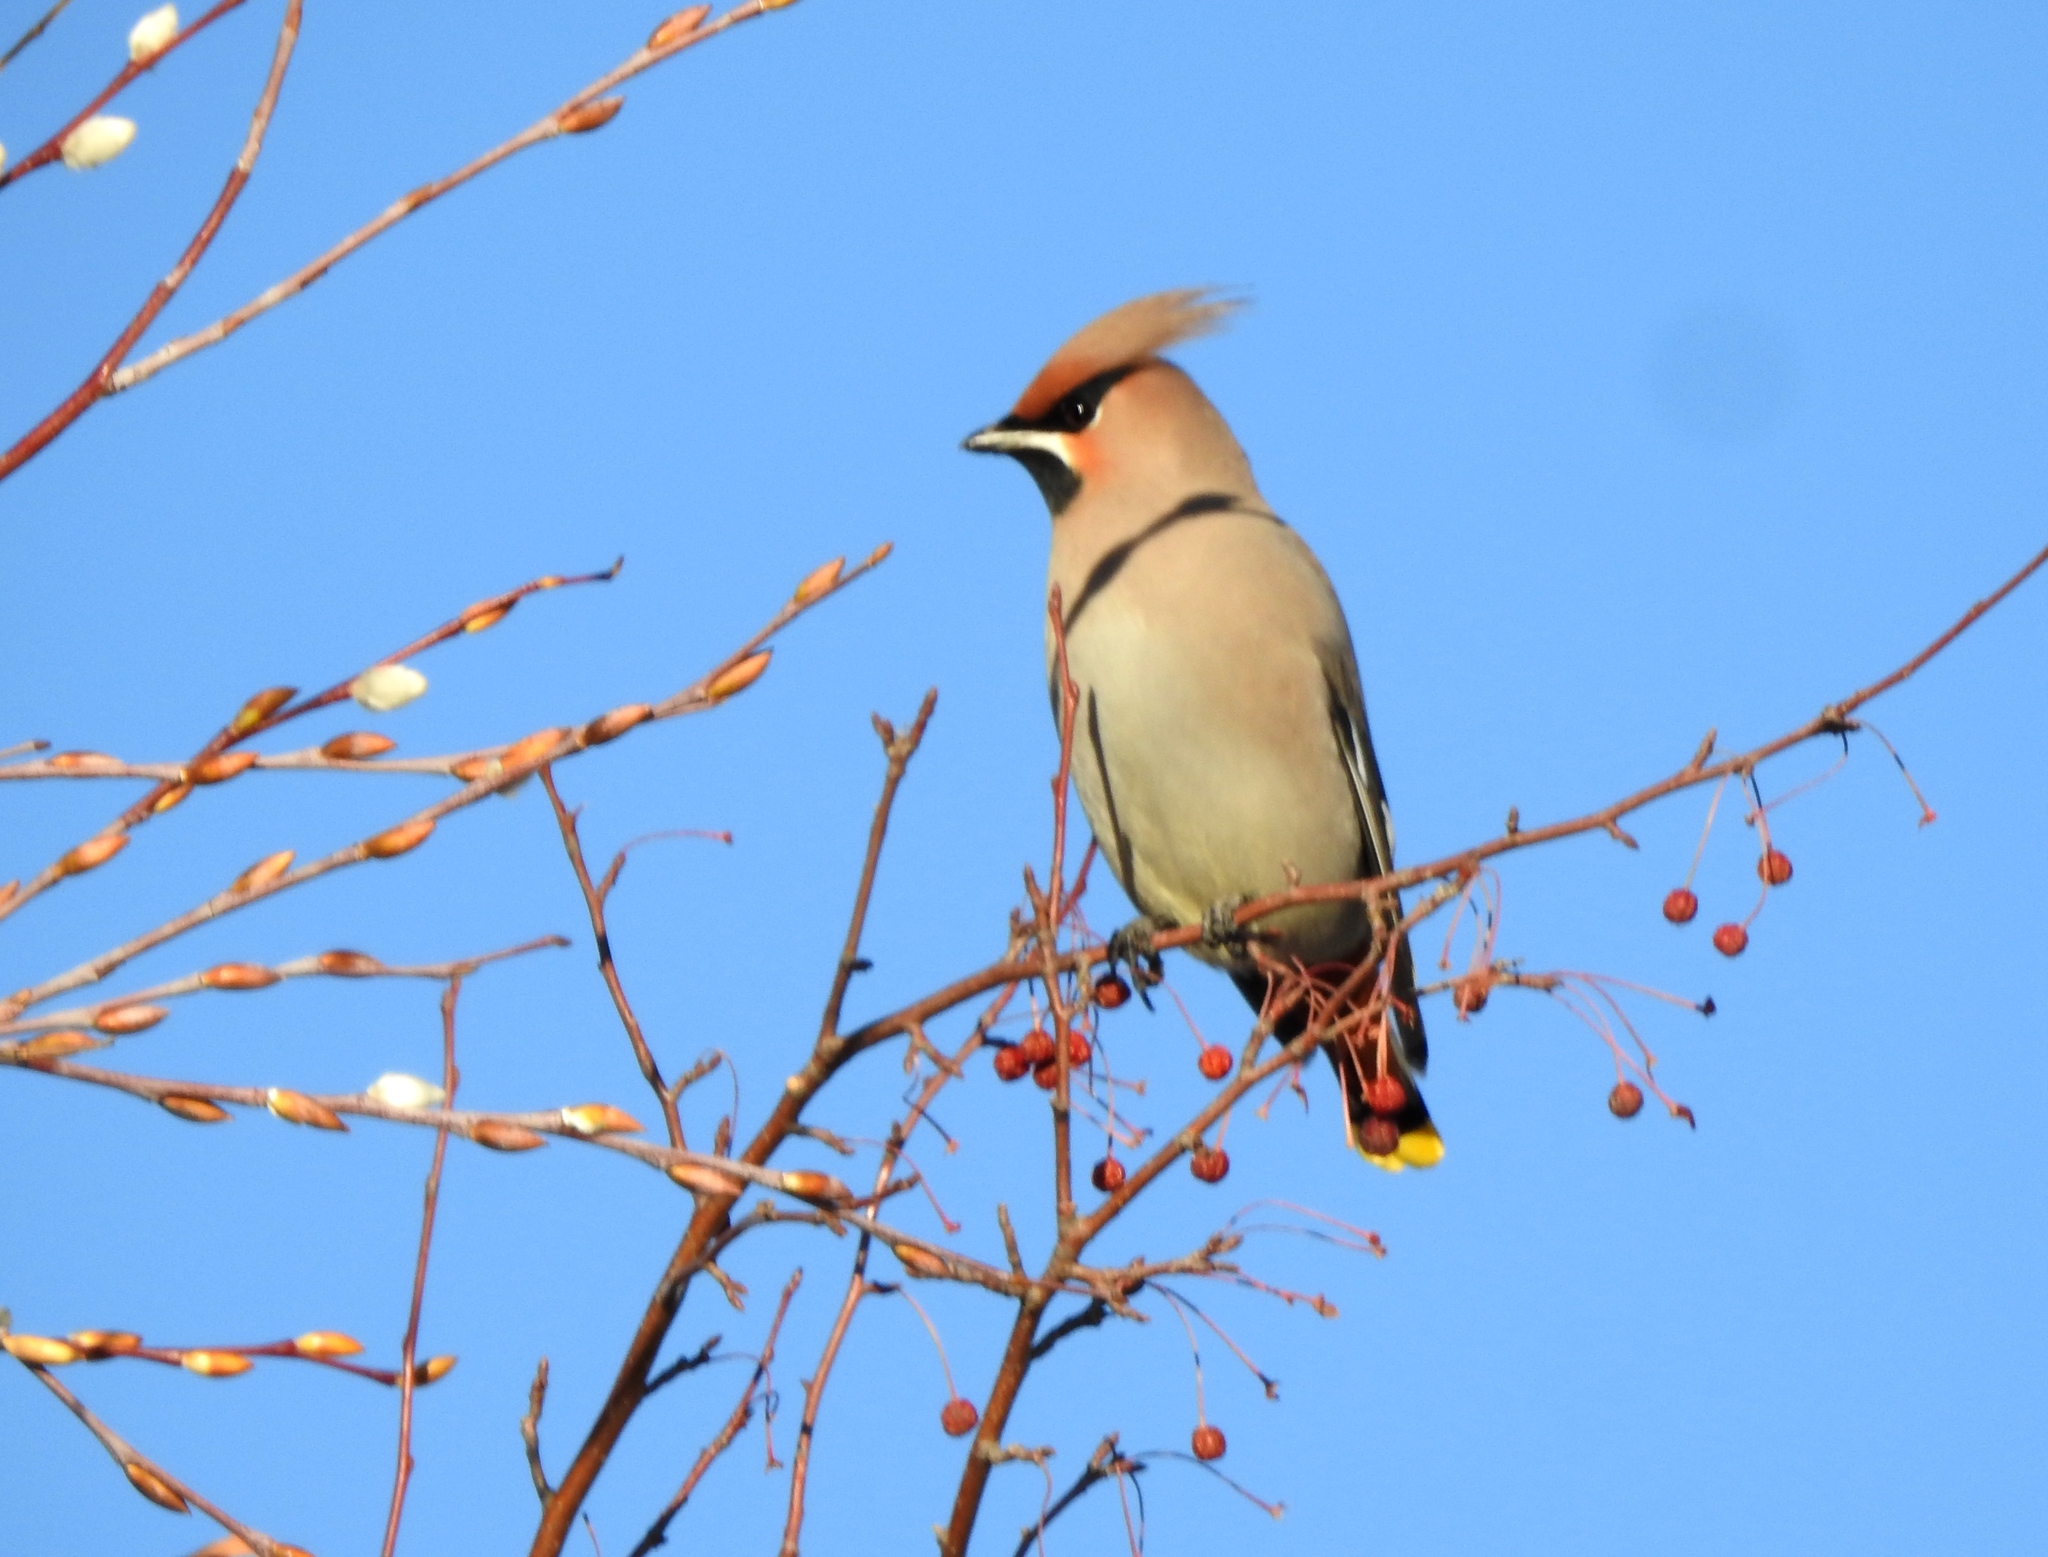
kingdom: Animalia
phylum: Chordata
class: Aves
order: Passeriformes
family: Bombycillidae
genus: Bombycilla
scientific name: Bombycilla garrulus
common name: Bohemian waxwing
